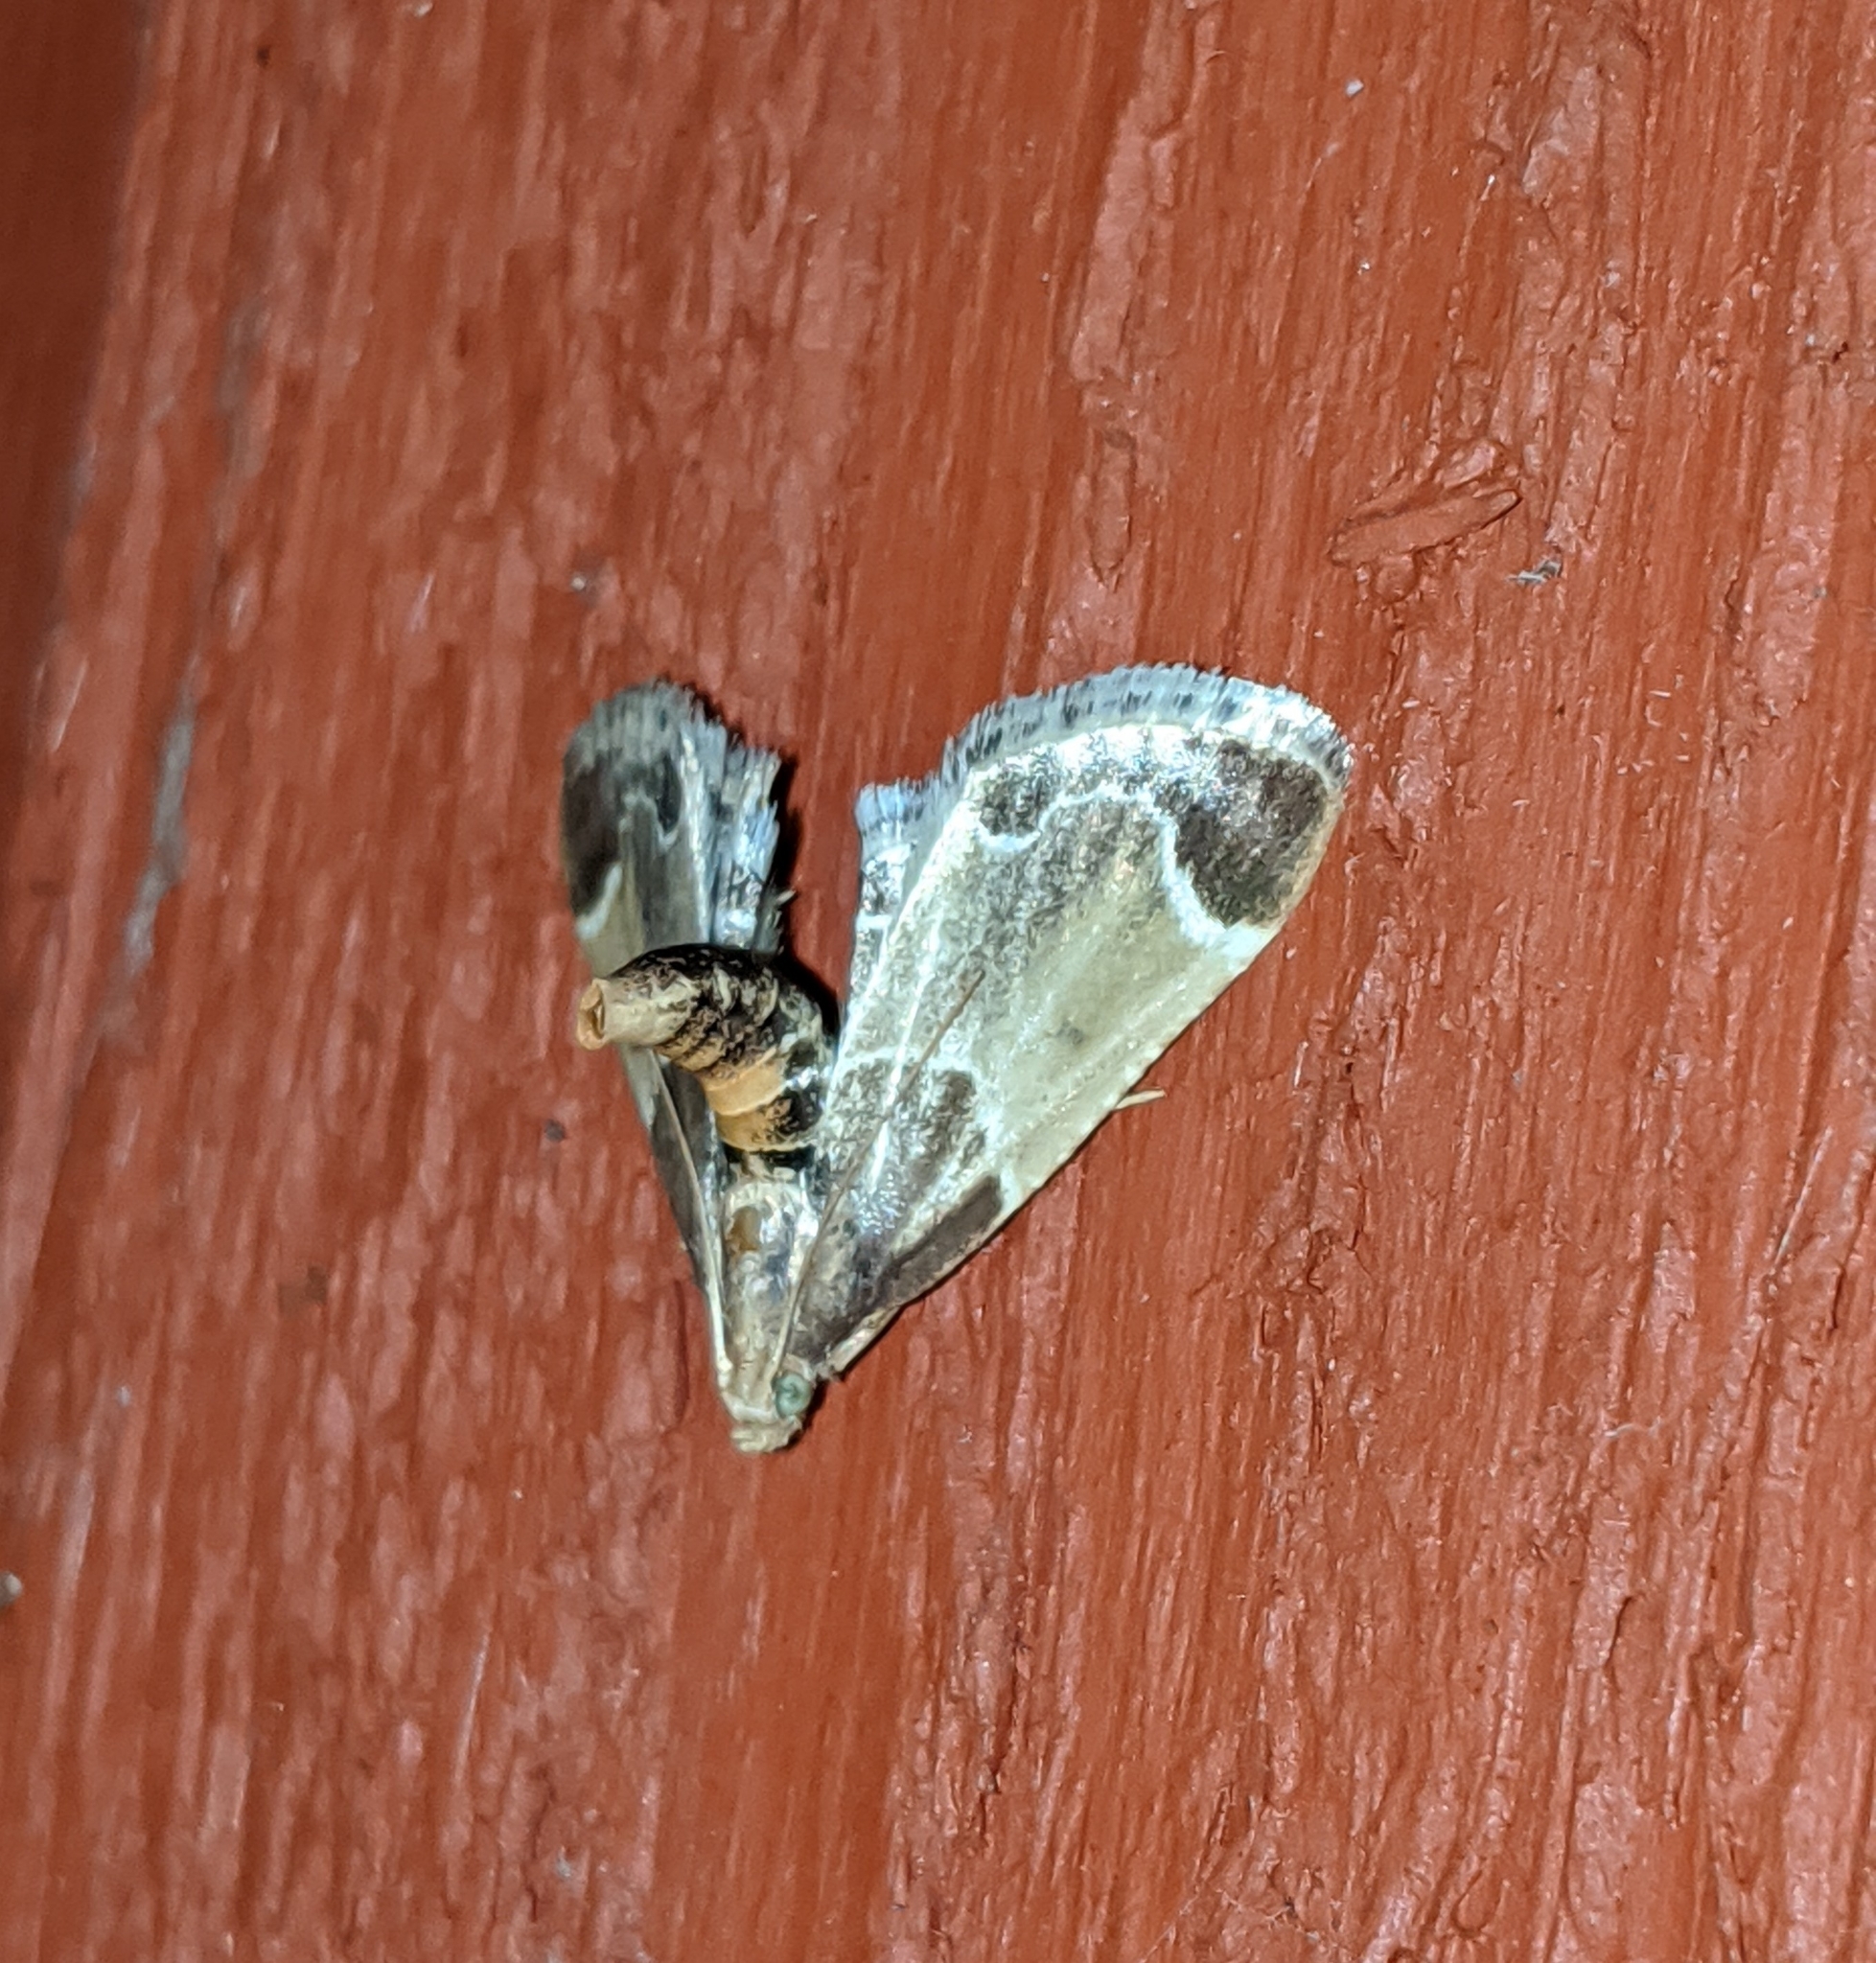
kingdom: Animalia
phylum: Arthropoda
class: Insecta
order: Lepidoptera
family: Pyralidae
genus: Pyralis
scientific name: Pyralis farinalis
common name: Meal moth
